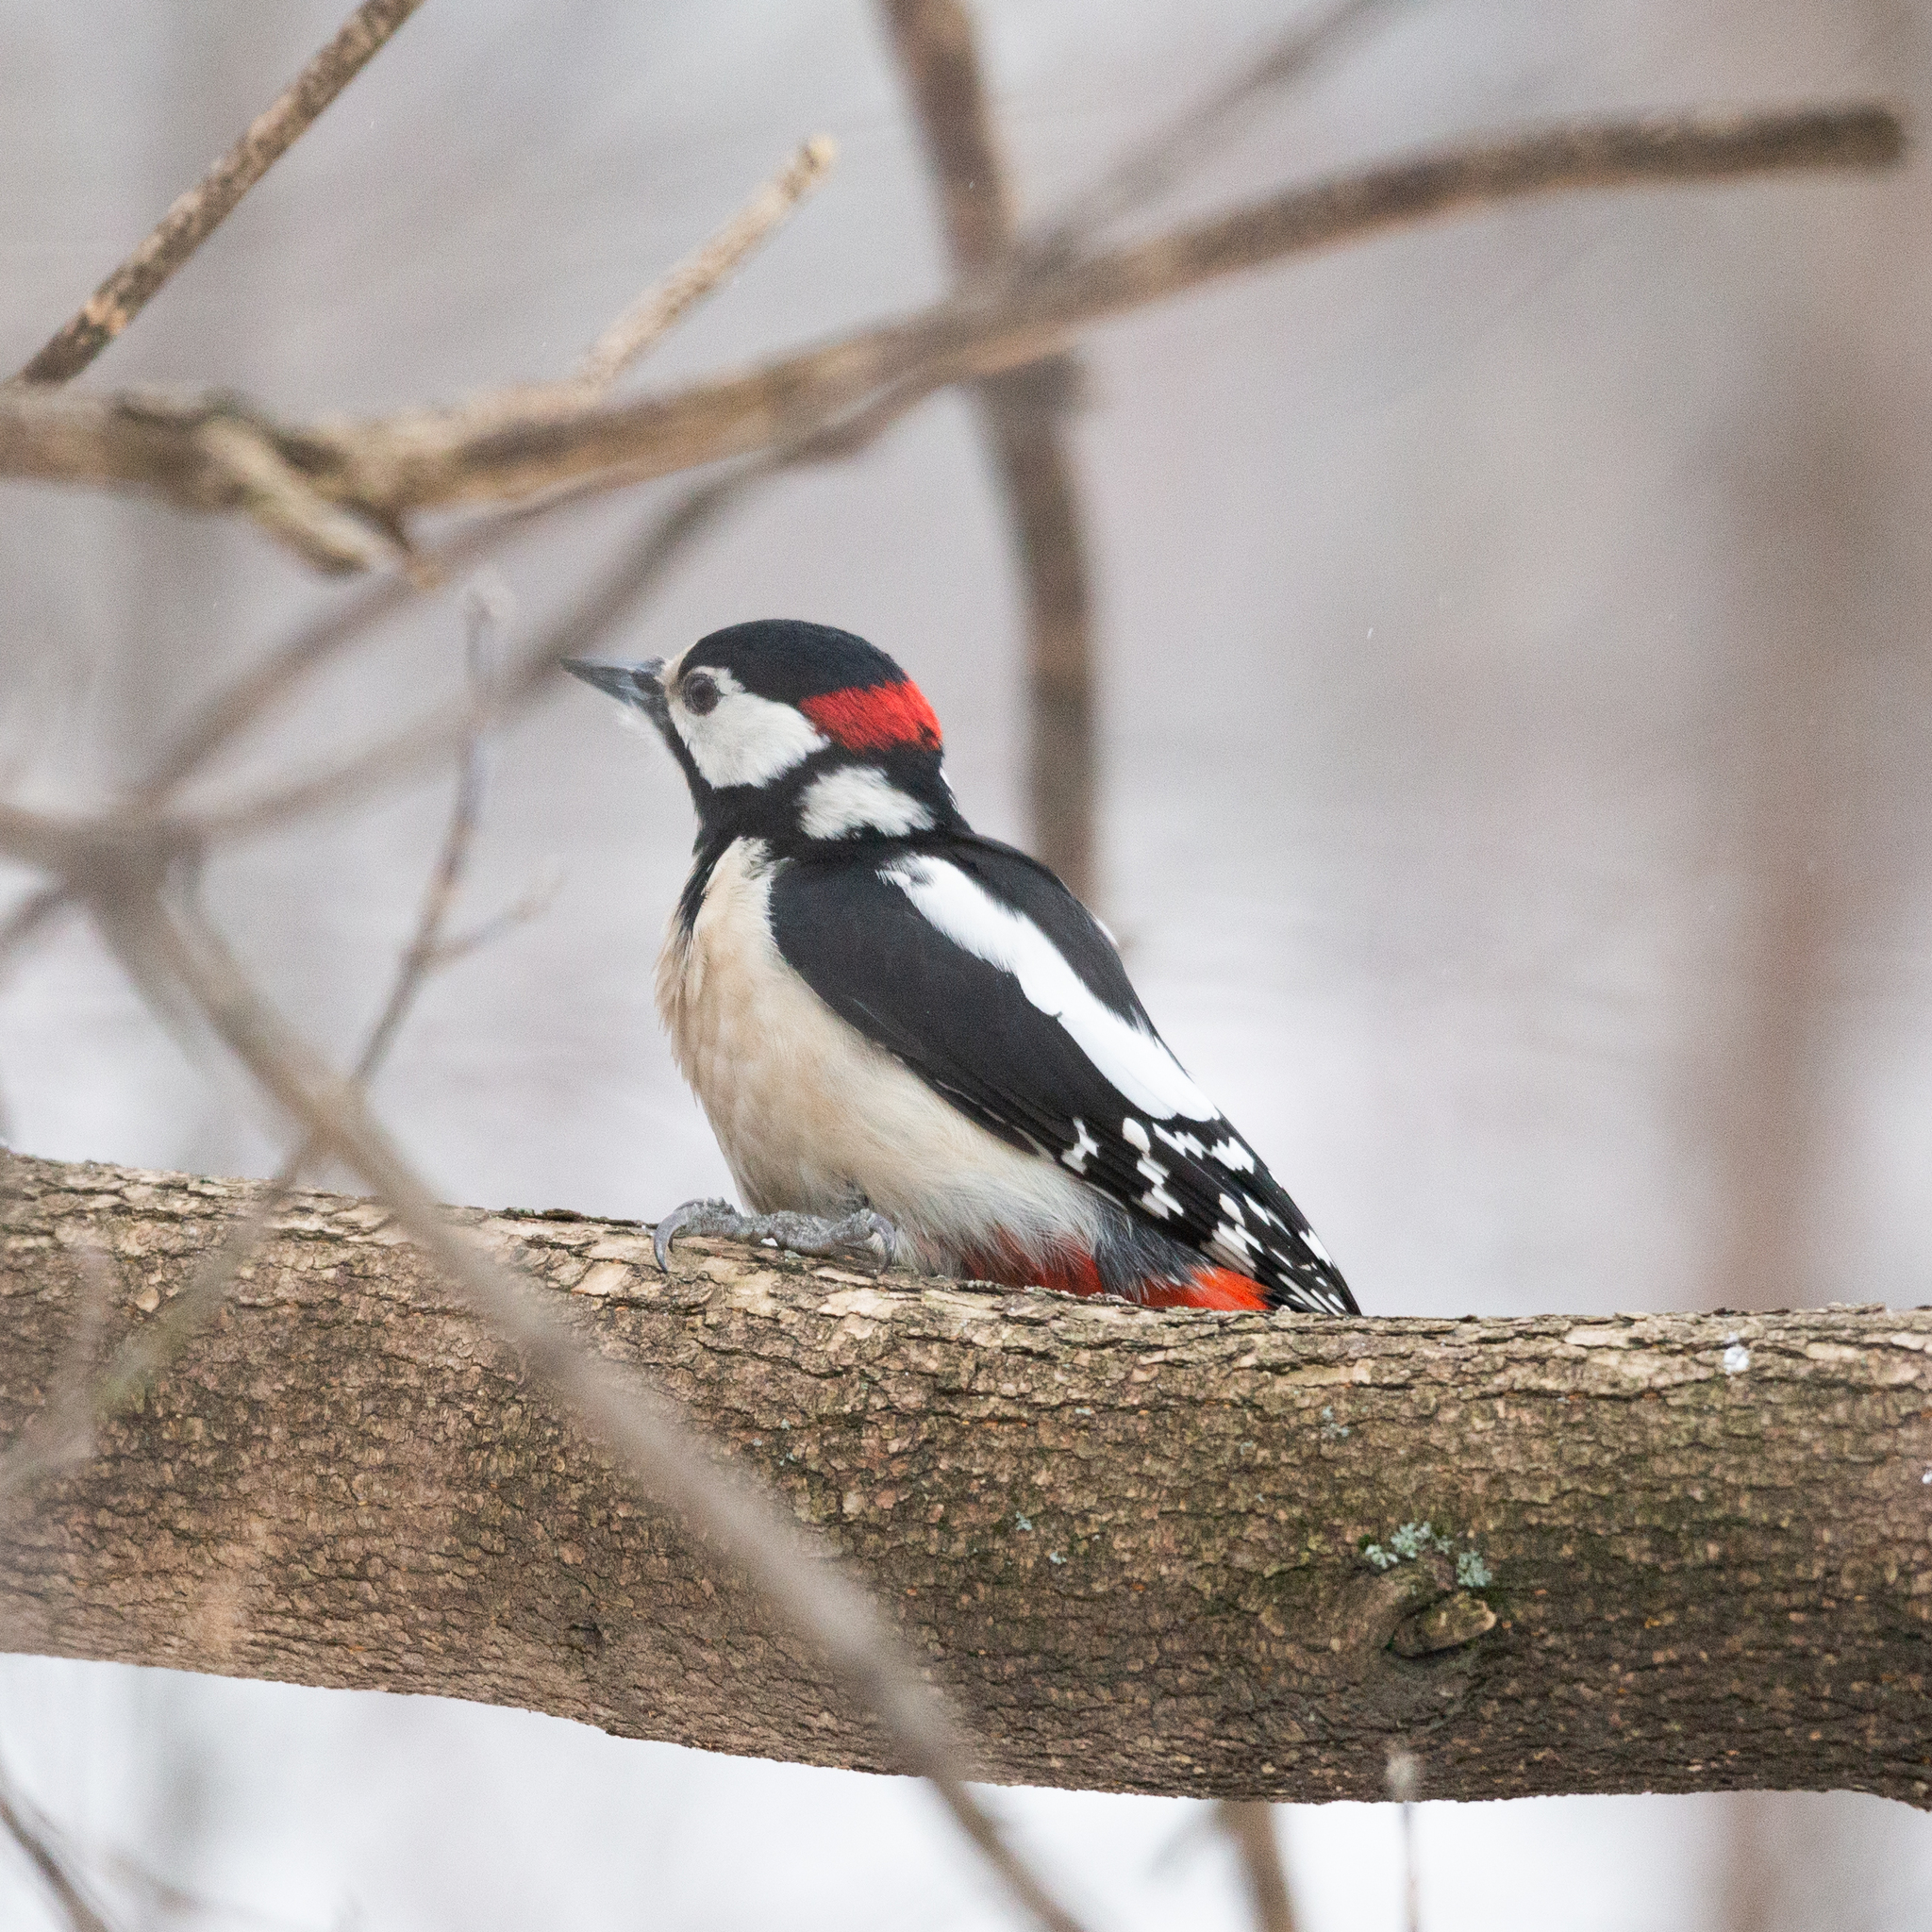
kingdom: Animalia
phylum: Chordata
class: Aves
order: Piciformes
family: Picidae
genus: Dendrocopos
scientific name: Dendrocopos major
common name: Great spotted woodpecker
